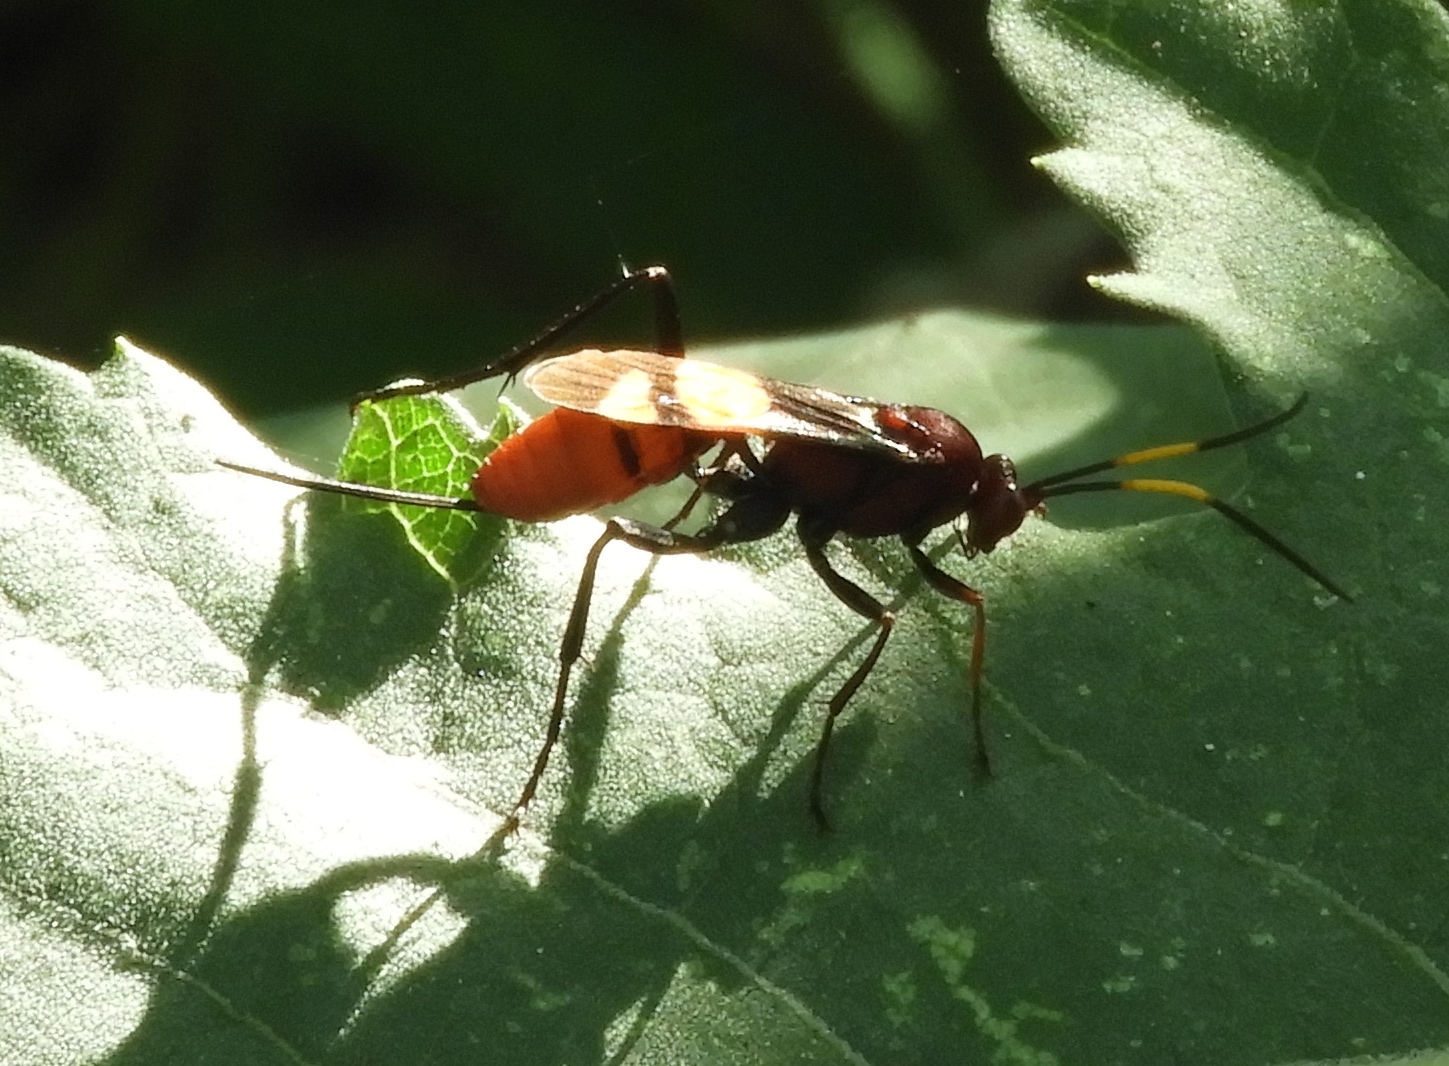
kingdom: Animalia
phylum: Arthropoda
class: Insecta
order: Hymenoptera
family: Ichneumonidae
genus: Compsocryptus
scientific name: Compsocryptus xanthostigma
